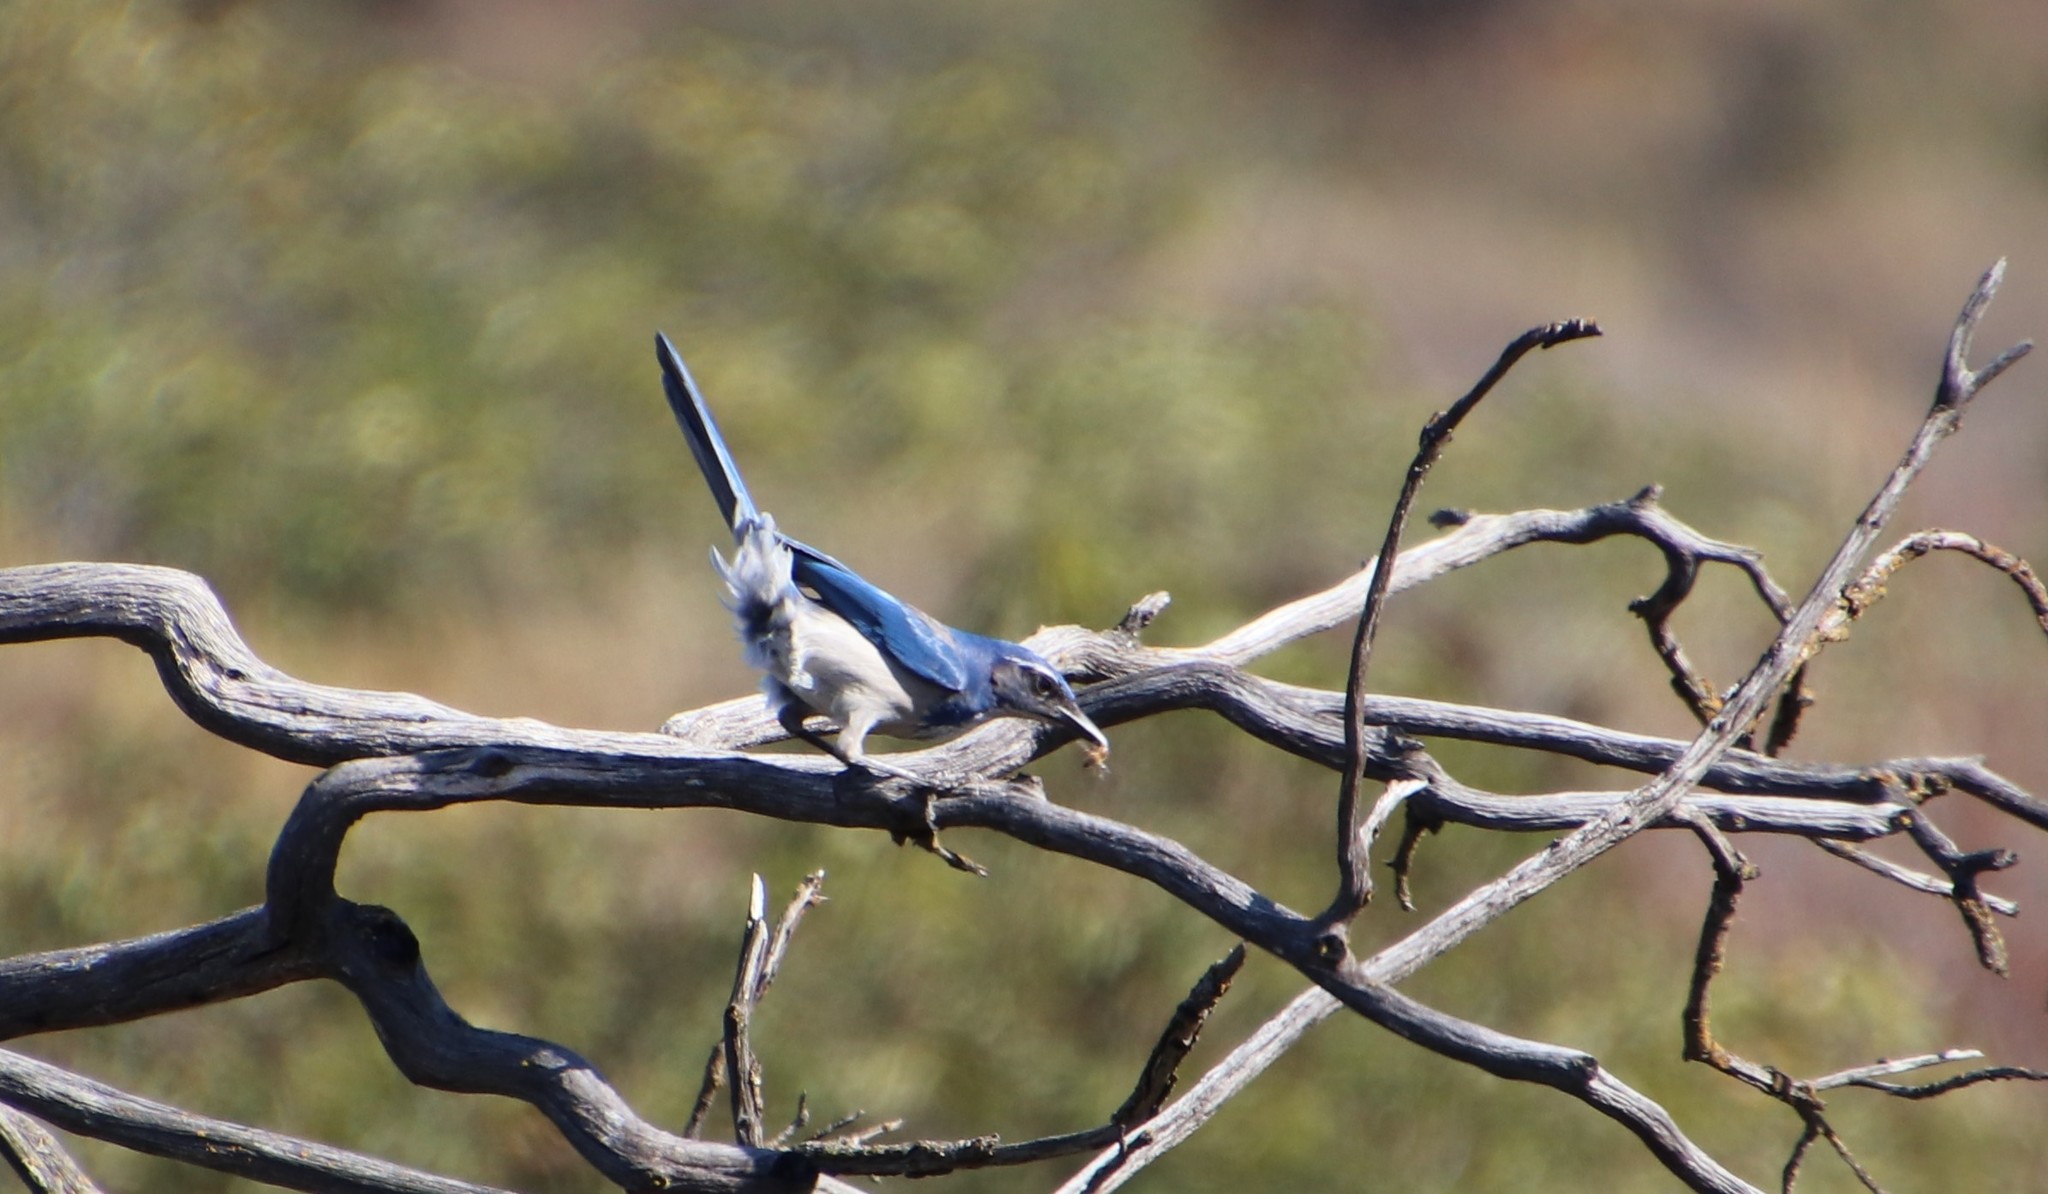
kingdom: Animalia
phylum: Chordata
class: Aves
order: Passeriformes
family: Corvidae
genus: Aphelocoma
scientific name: Aphelocoma californica
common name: California scrub-jay
